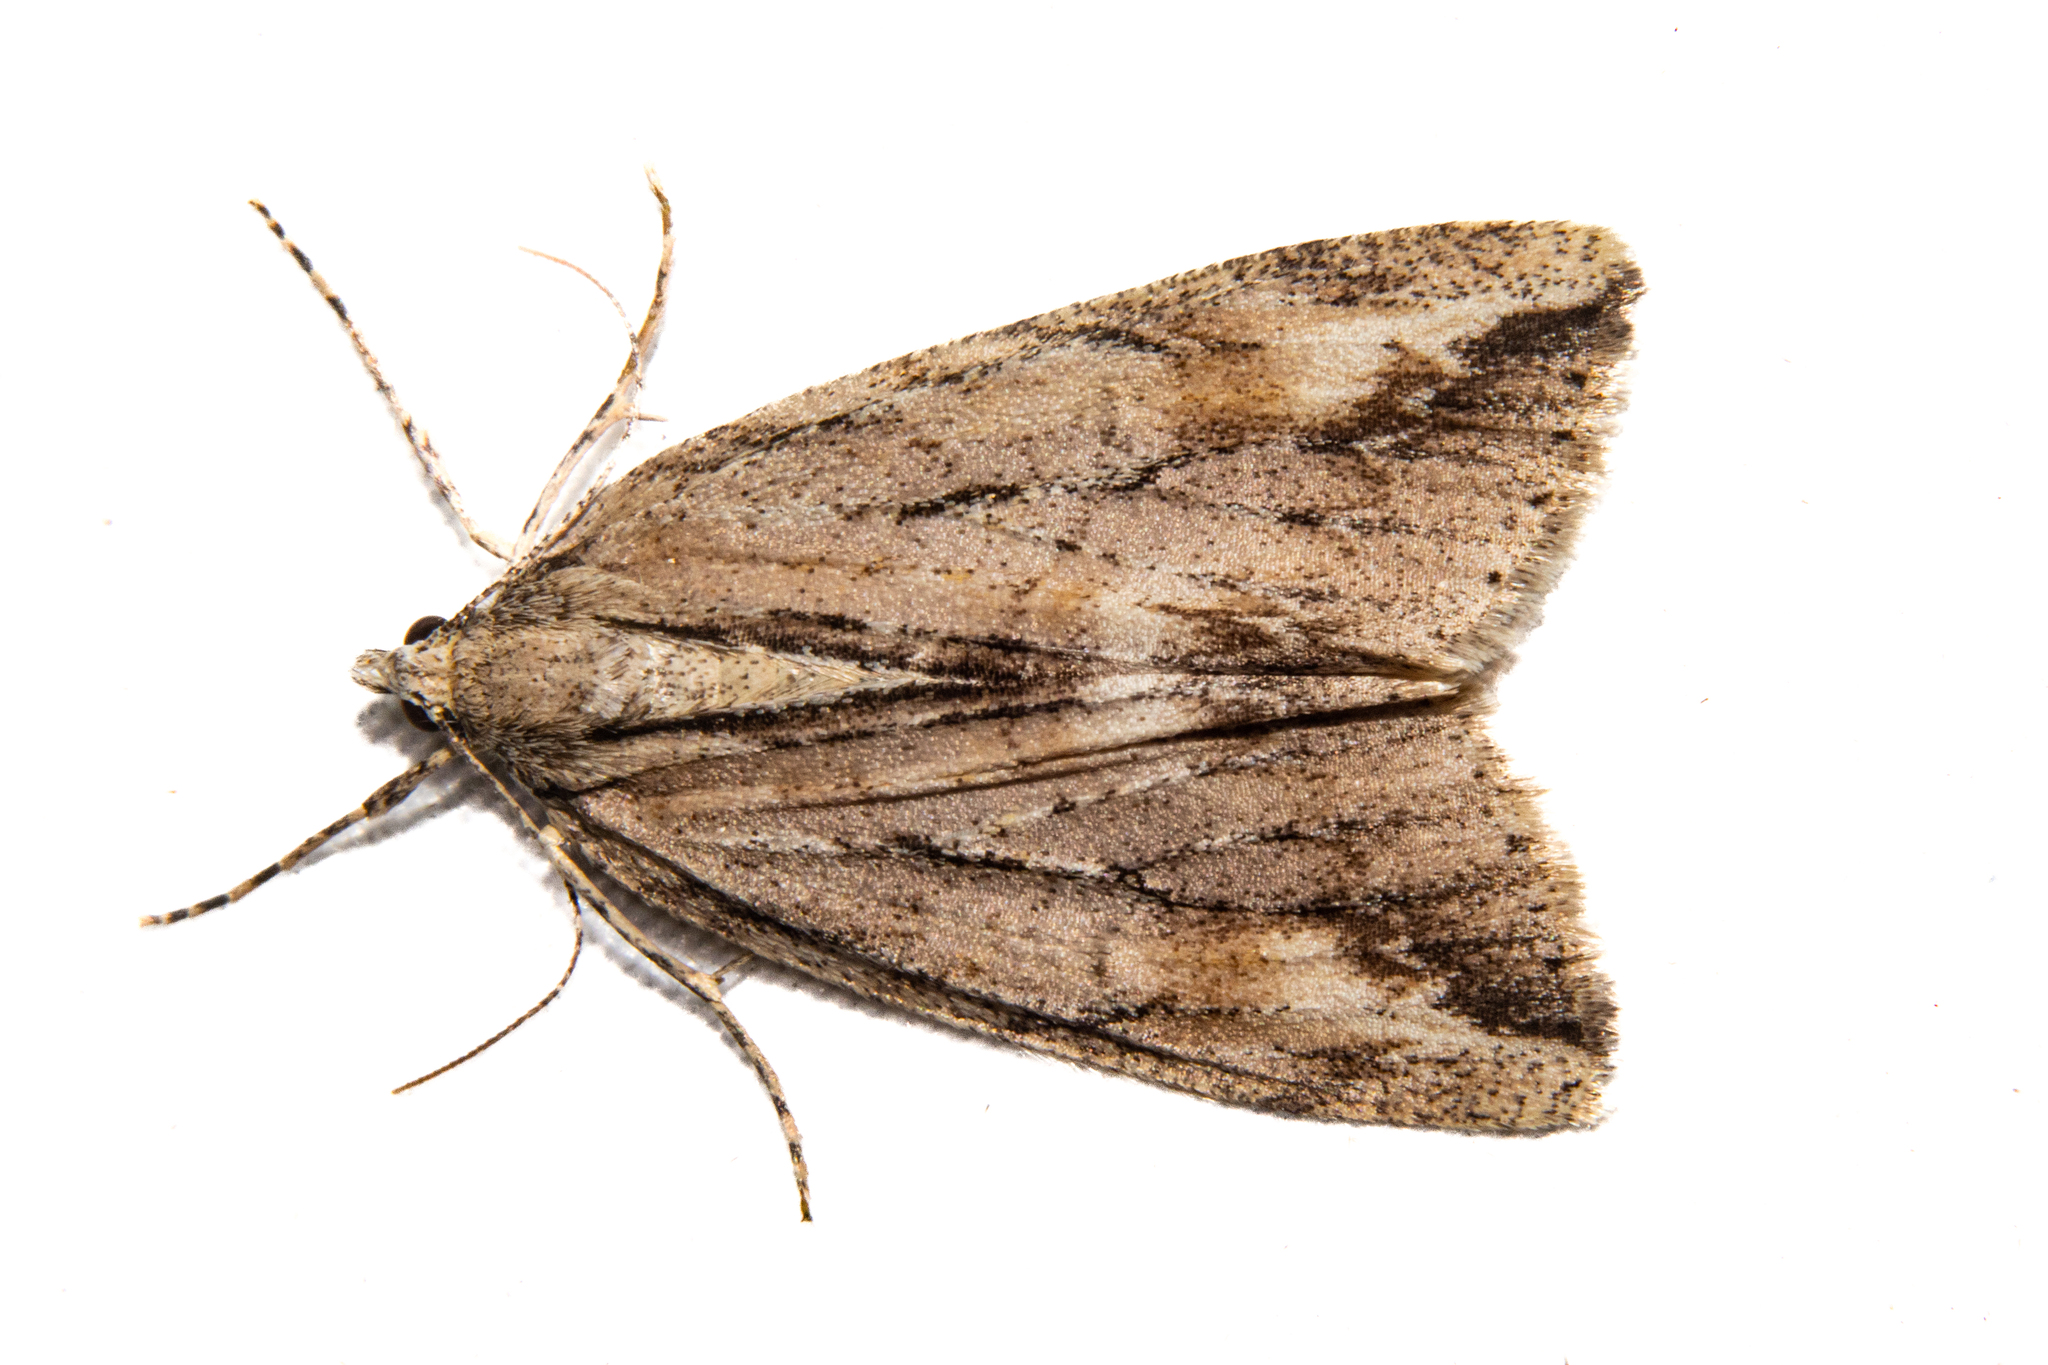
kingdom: Animalia
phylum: Arthropoda
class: Insecta
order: Lepidoptera
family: Geometridae
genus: Pseudocoremia
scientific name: Pseudocoremia lupinata
